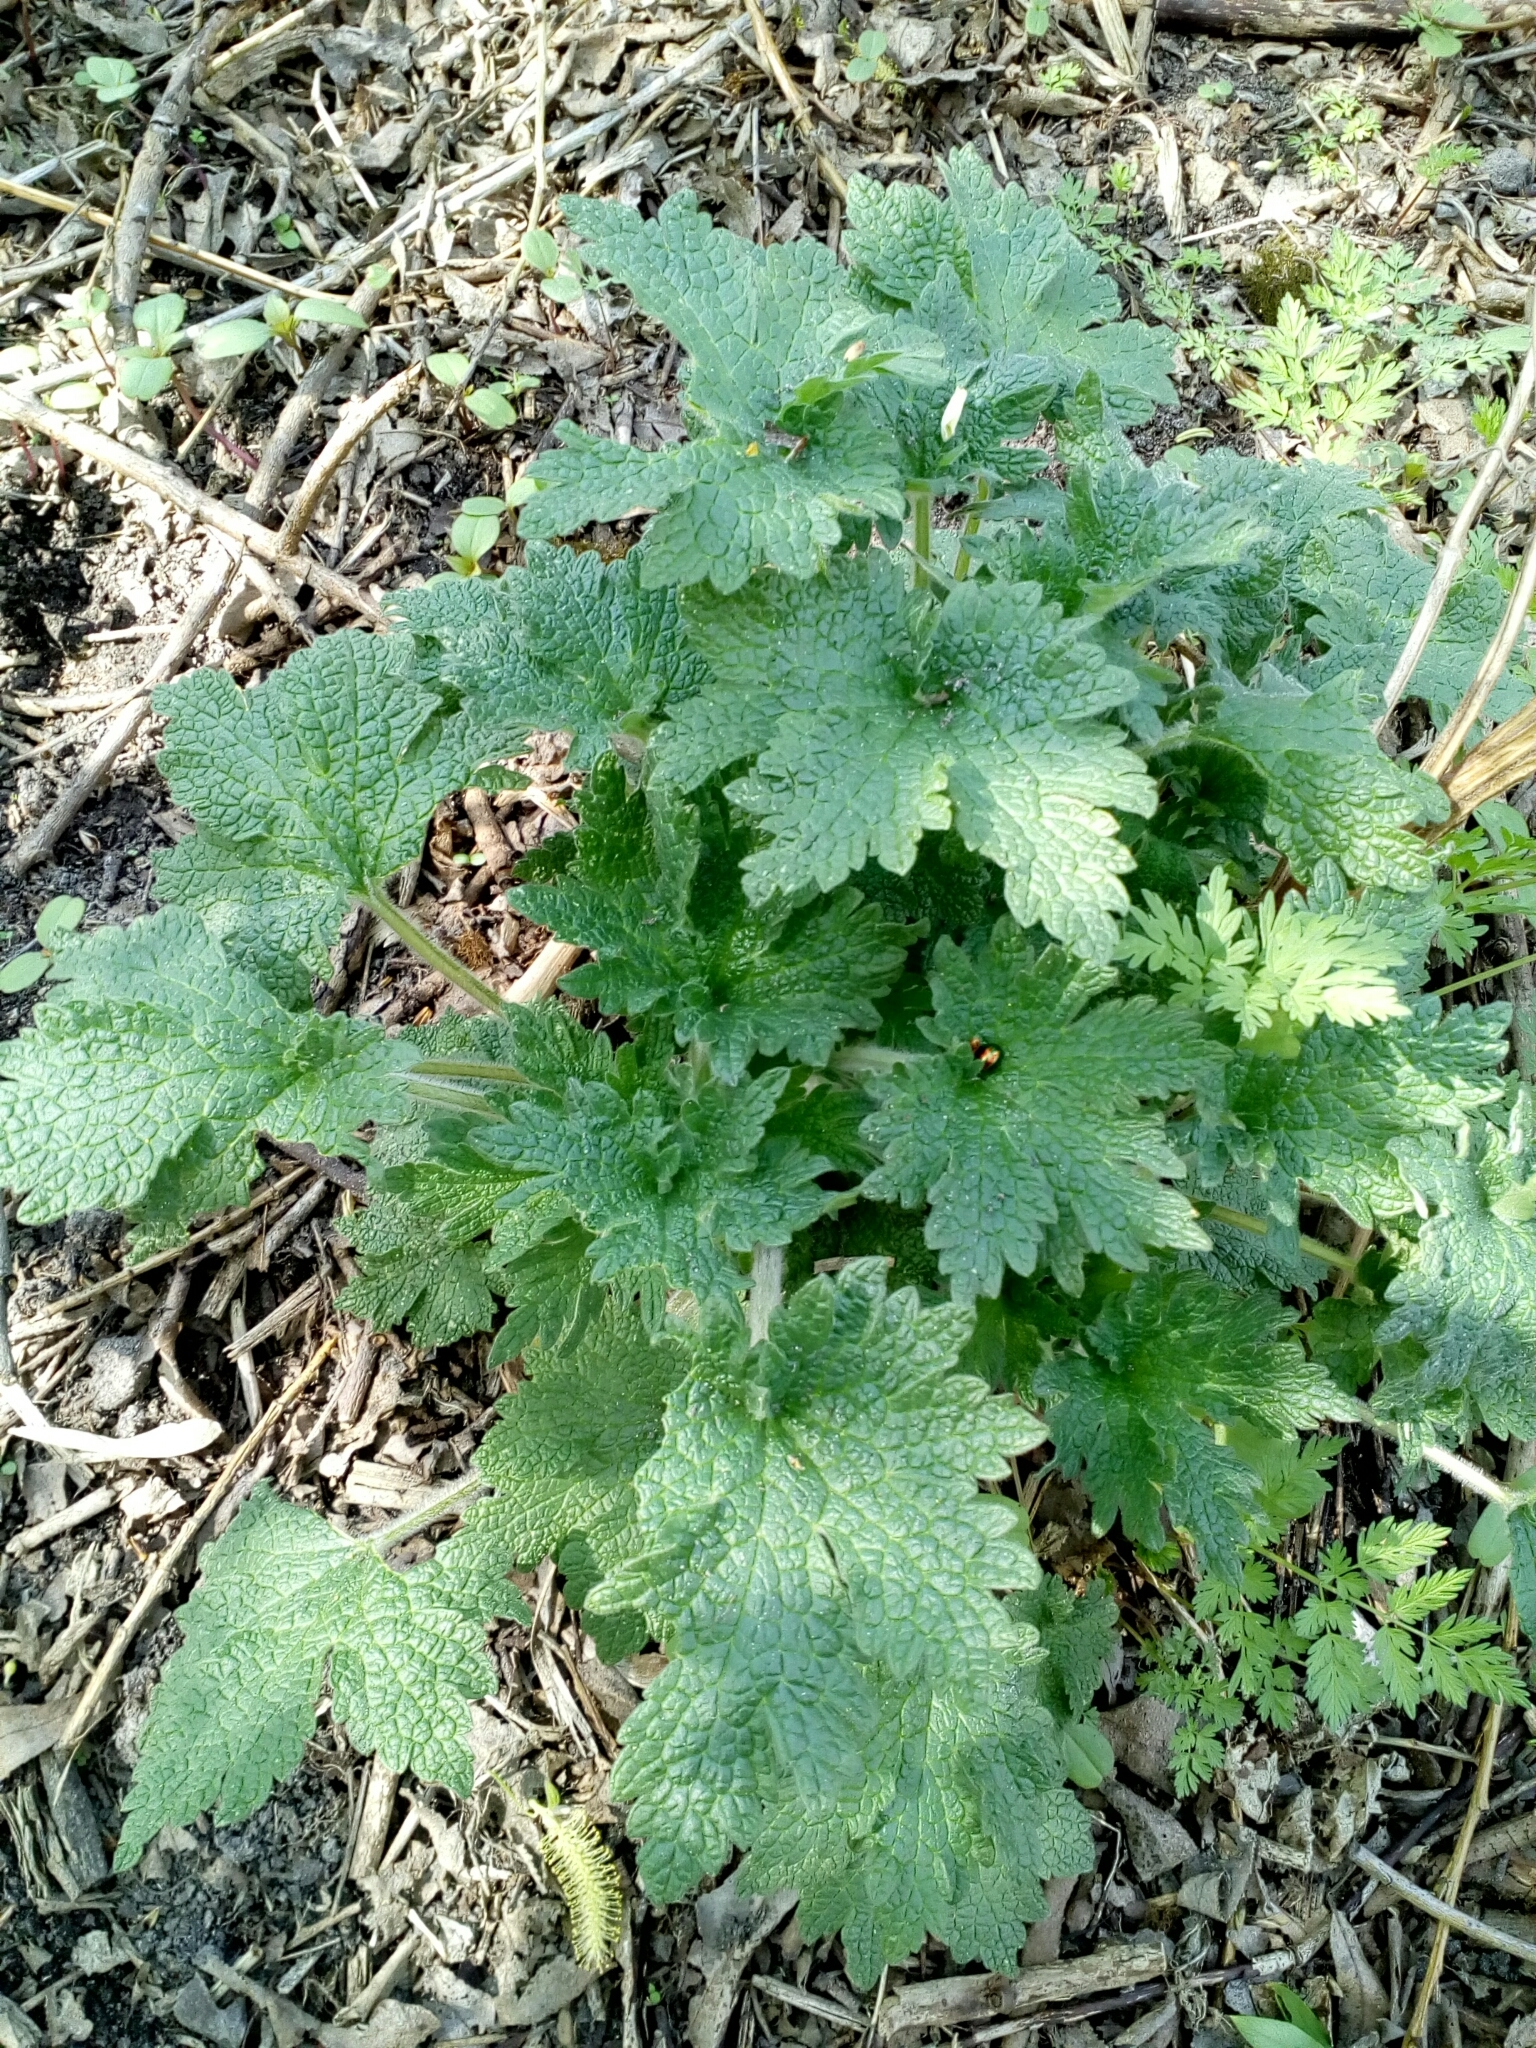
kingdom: Plantae
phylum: Tracheophyta
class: Magnoliopsida
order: Lamiales
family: Lamiaceae
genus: Leonurus
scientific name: Leonurus quinquelobatus
